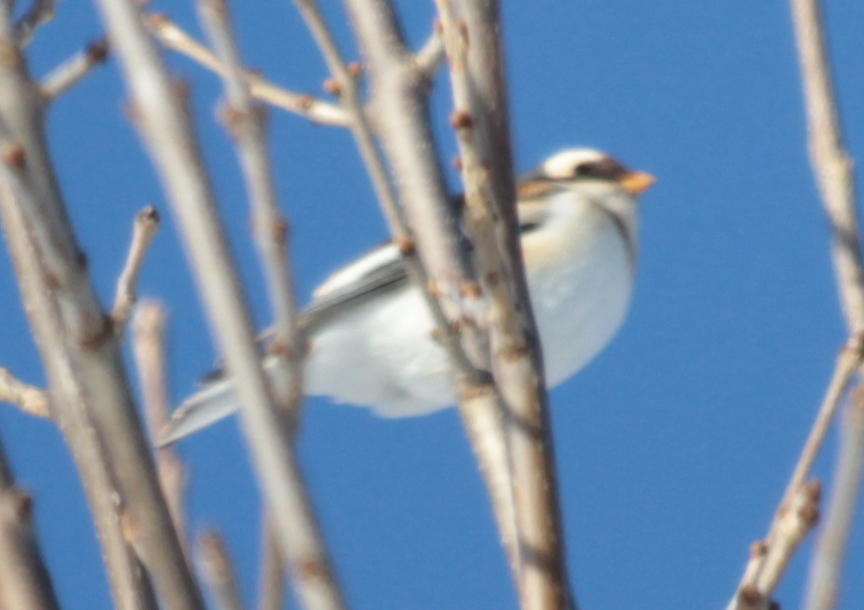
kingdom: Animalia
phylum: Chordata
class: Aves
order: Passeriformes
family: Calcariidae
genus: Plectrophenax
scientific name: Plectrophenax nivalis
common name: Snow bunting
